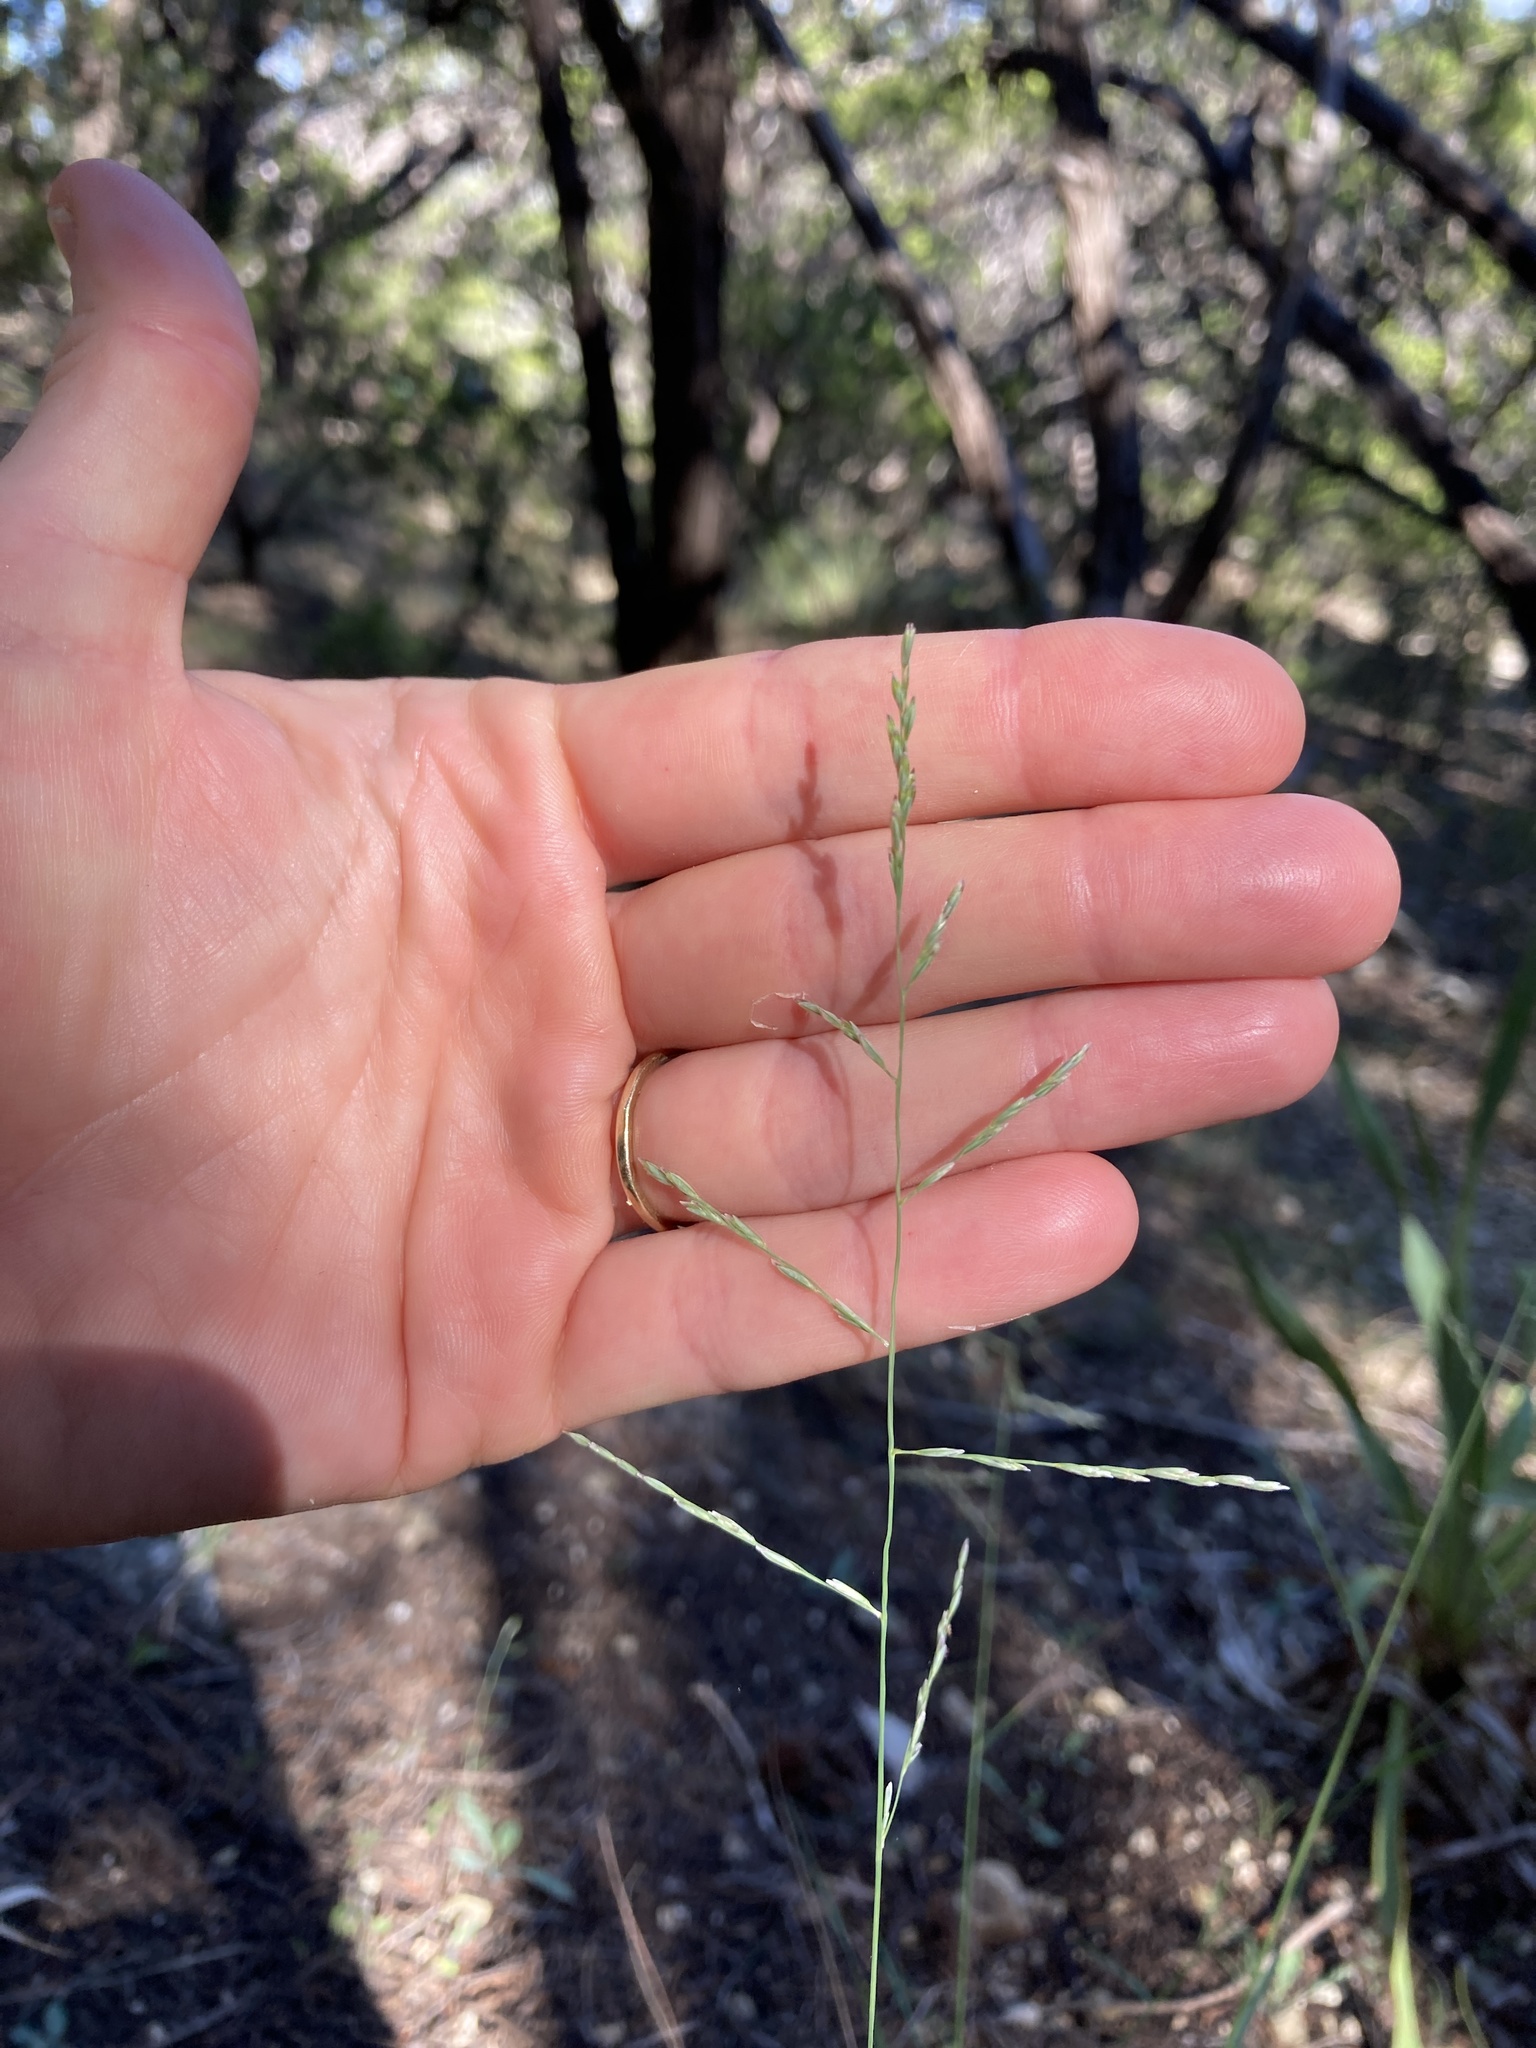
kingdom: Plantae
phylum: Tracheophyta
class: Liliopsida
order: Poales
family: Poaceae
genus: Tridentopsis
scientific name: Tridentopsis buckleyana
